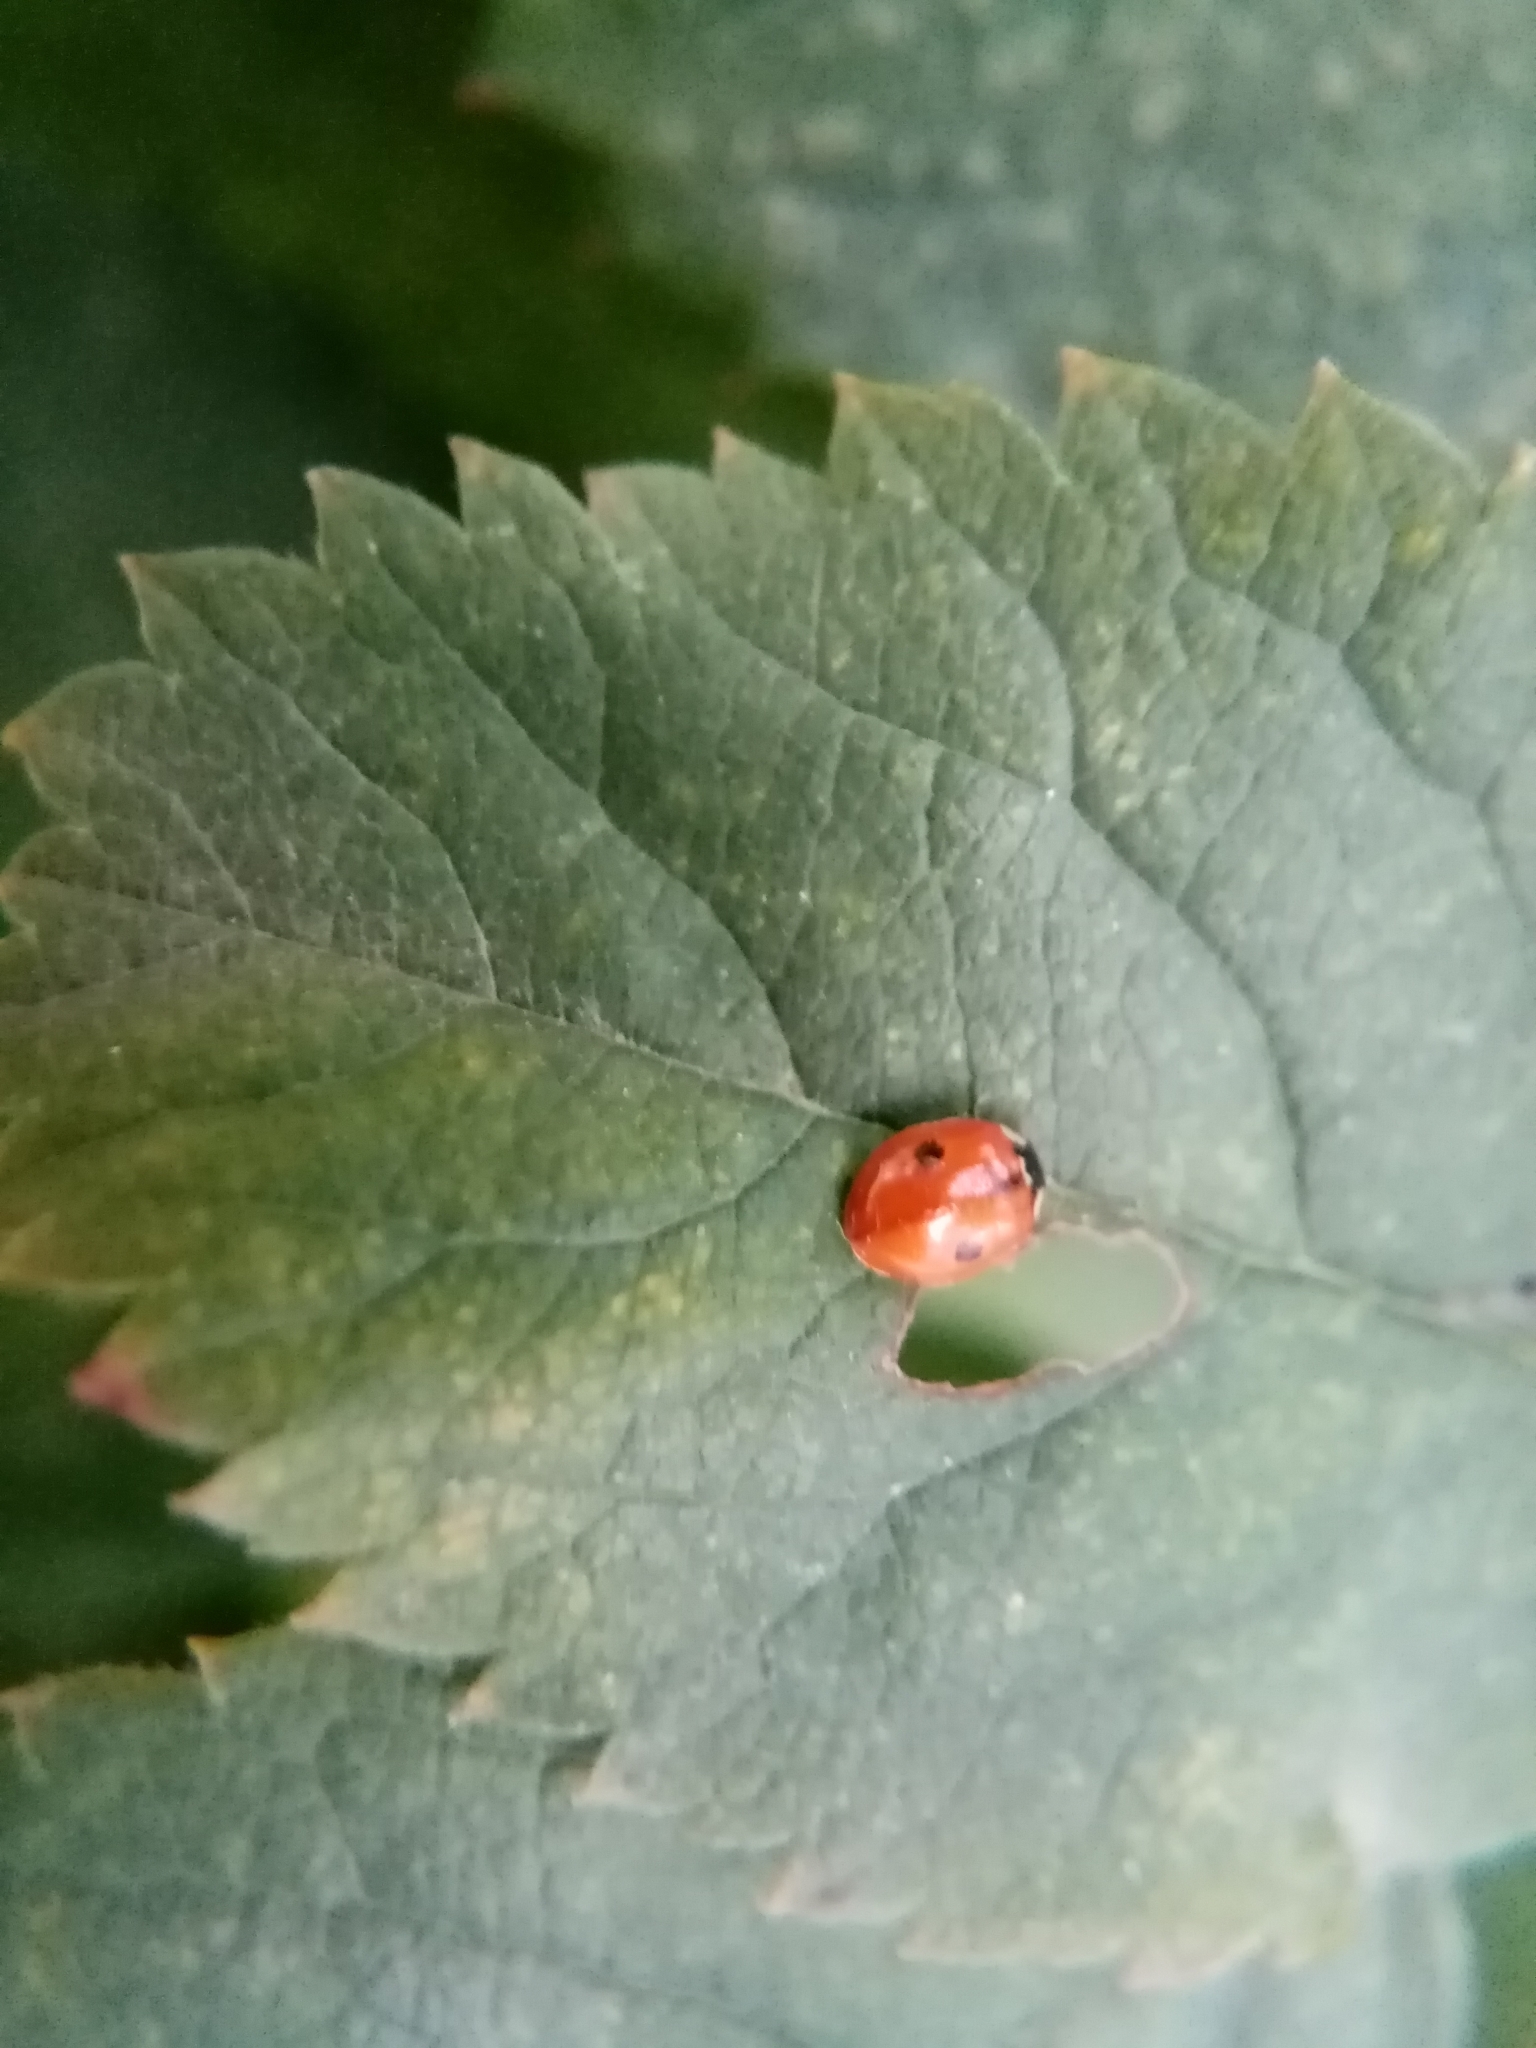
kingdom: Animalia
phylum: Arthropoda
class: Insecta
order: Coleoptera
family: Coccinellidae
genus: Adalia
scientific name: Adalia bipunctata
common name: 2-spot ladybird
